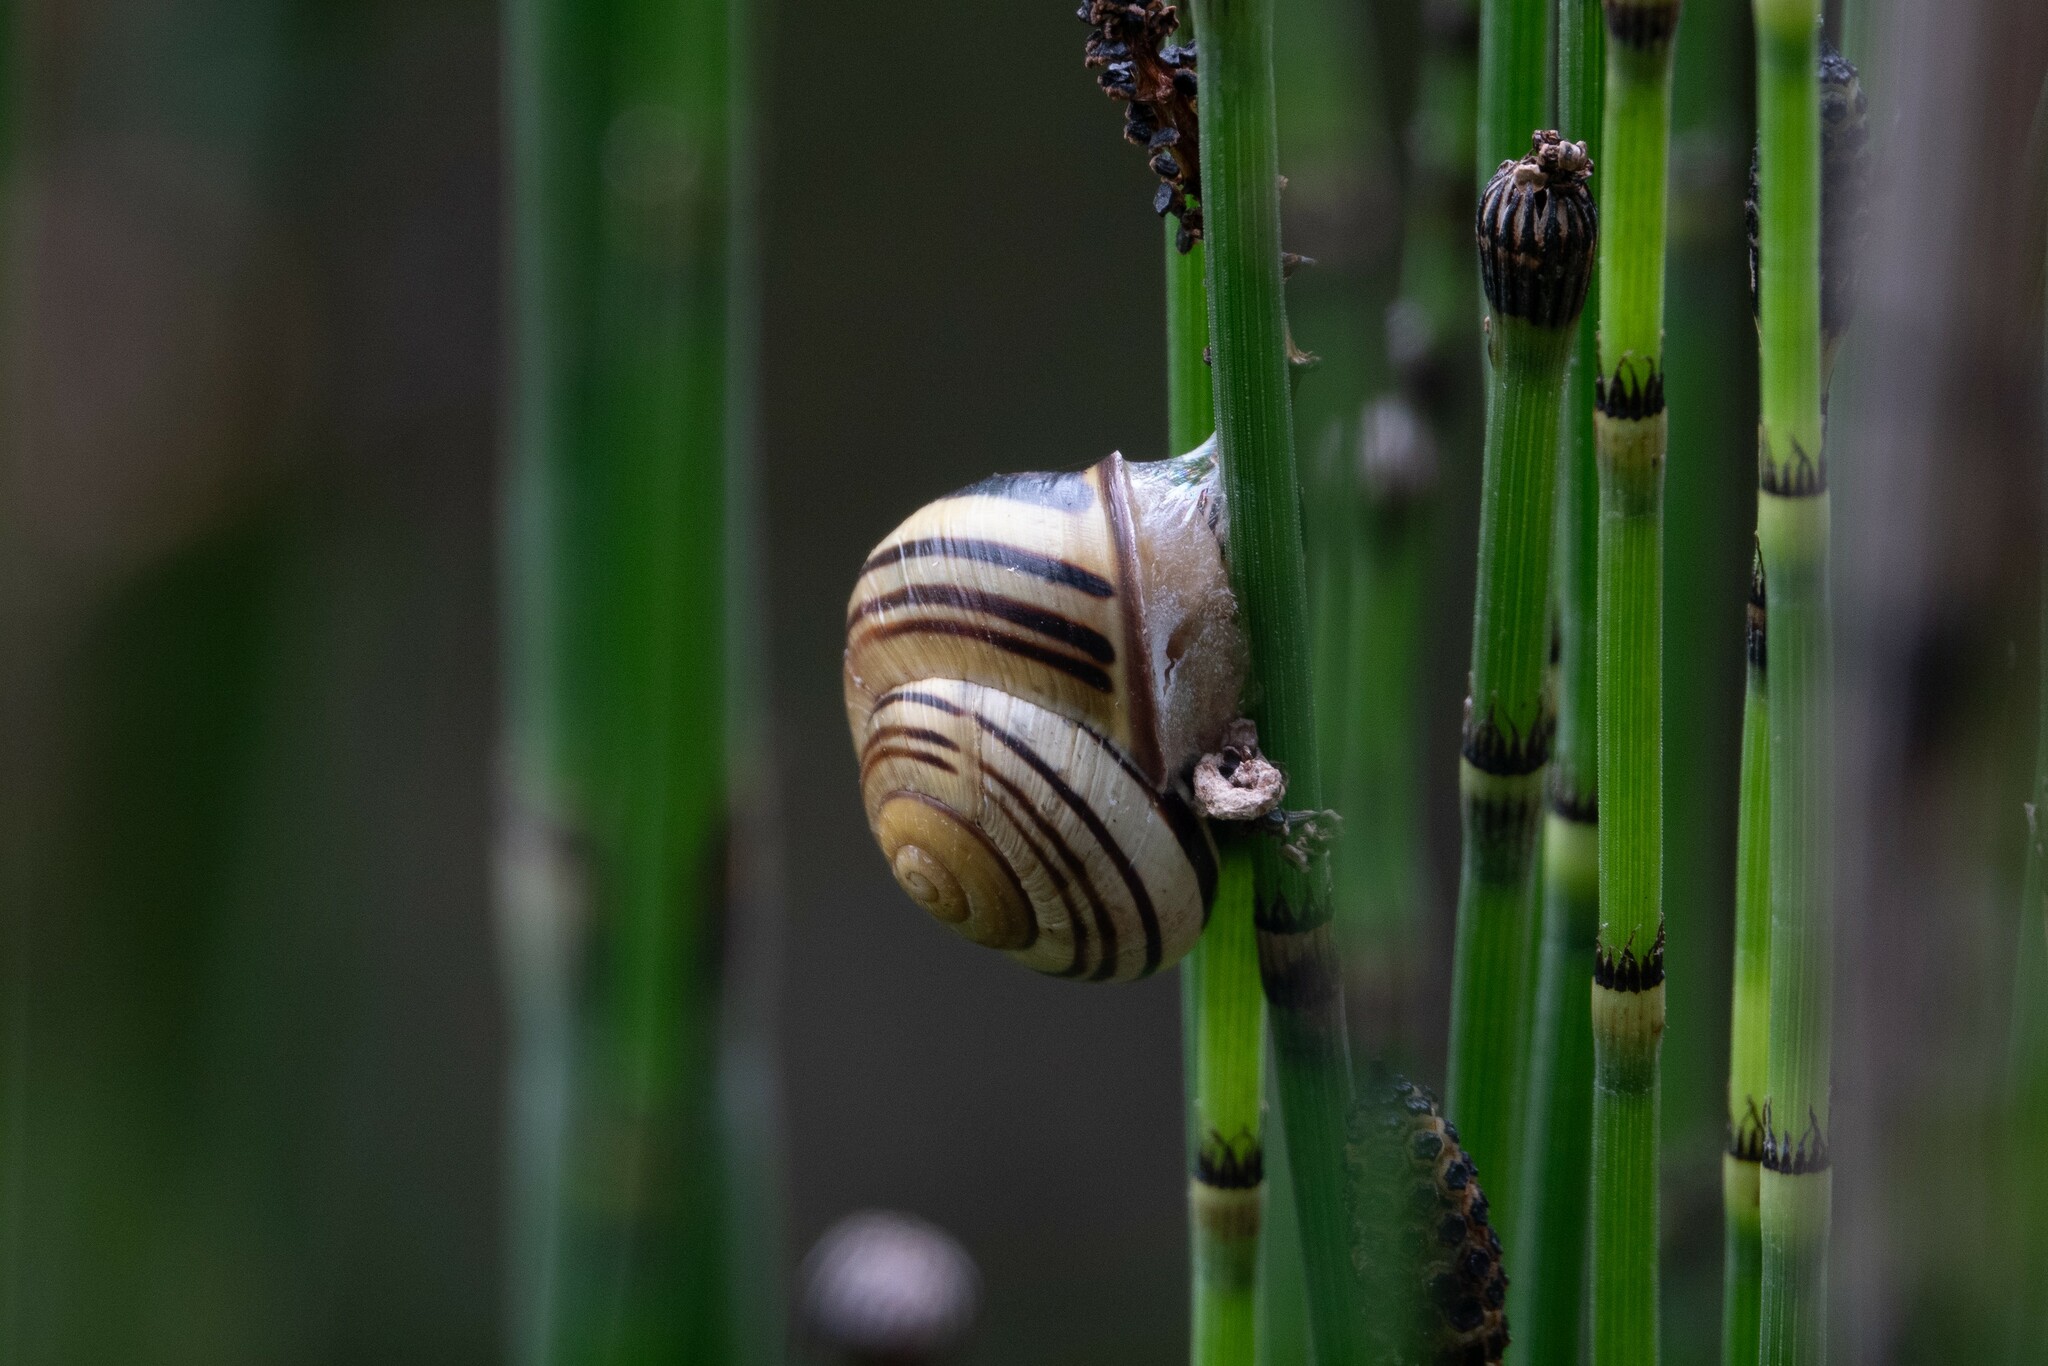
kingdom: Animalia
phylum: Mollusca
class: Gastropoda
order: Stylommatophora
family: Helicidae
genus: Cepaea
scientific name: Cepaea nemoralis
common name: Grovesnail
